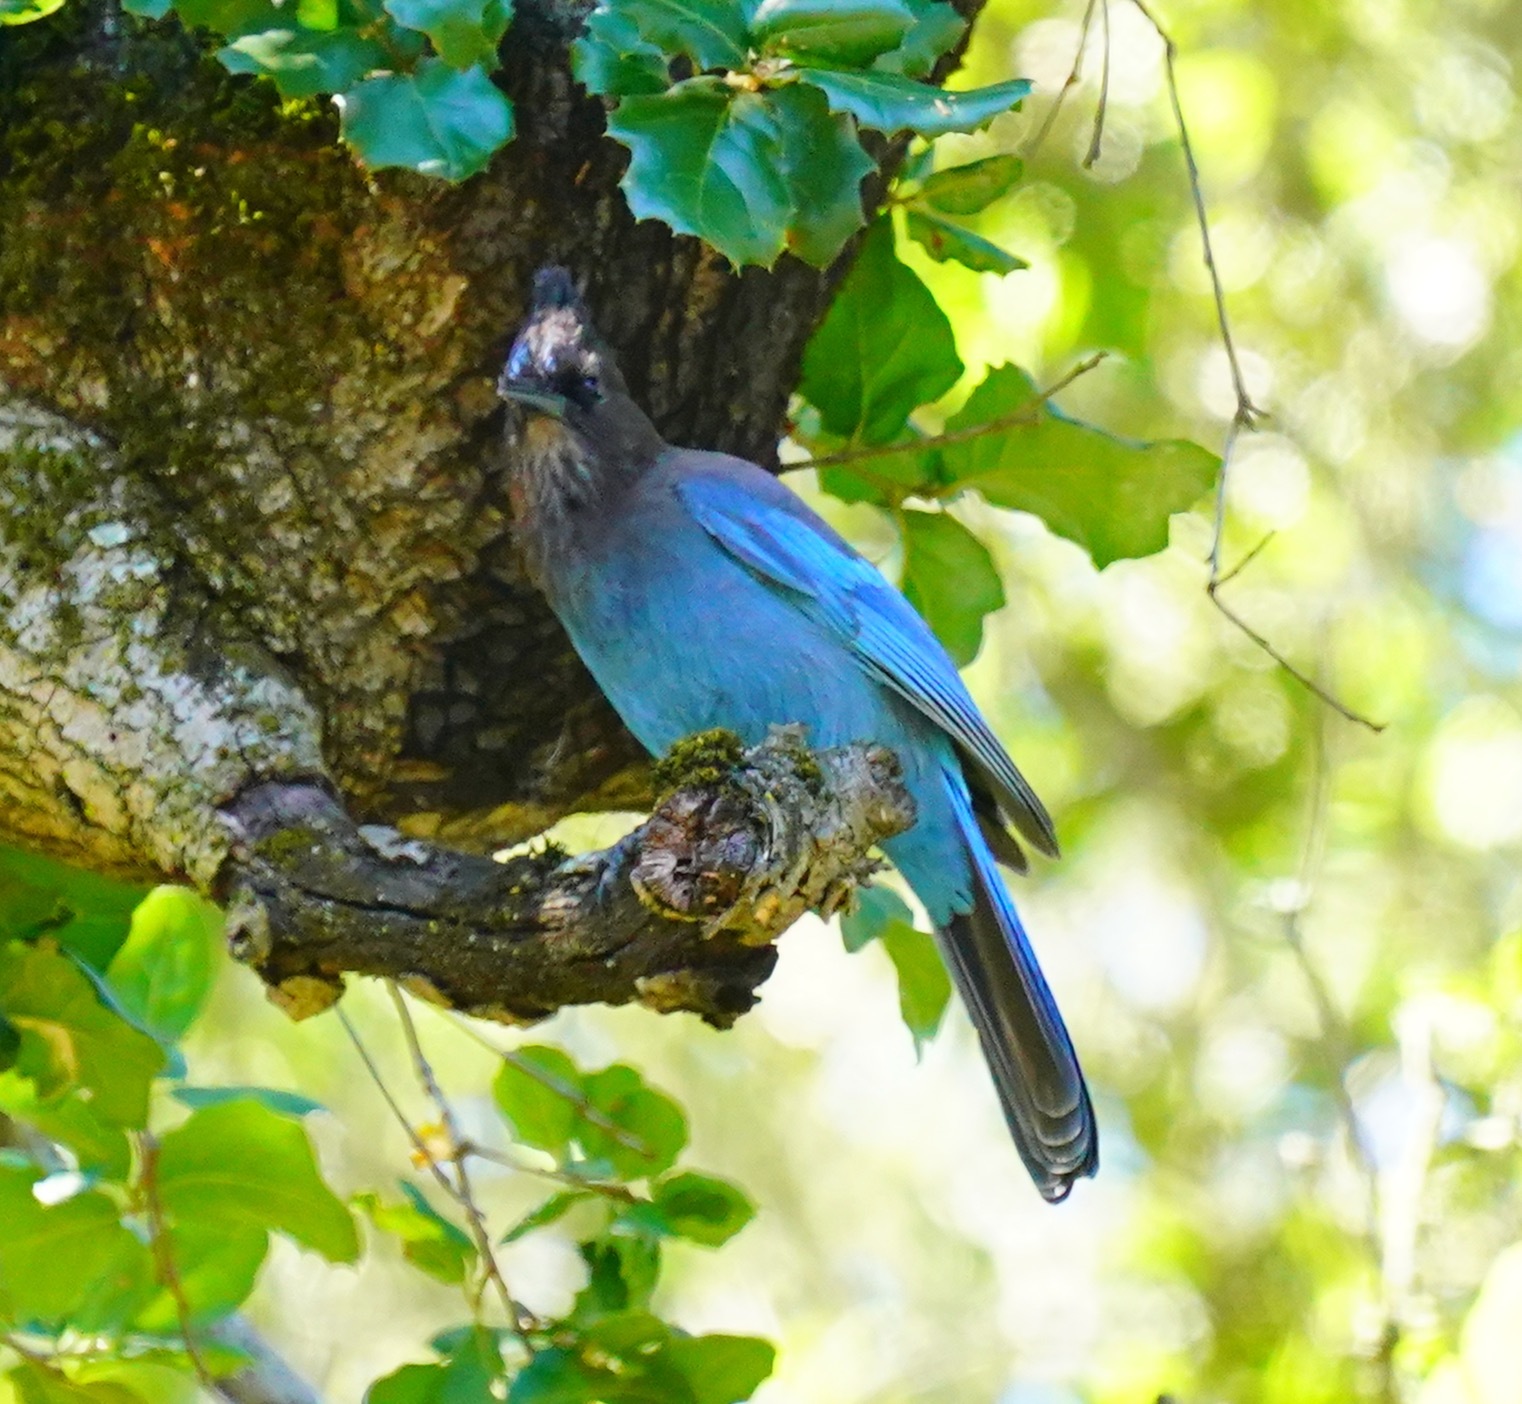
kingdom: Animalia
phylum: Chordata
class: Aves
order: Passeriformes
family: Corvidae
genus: Cyanocitta
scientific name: Cyanocitta stelleri
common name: Steller's jay
